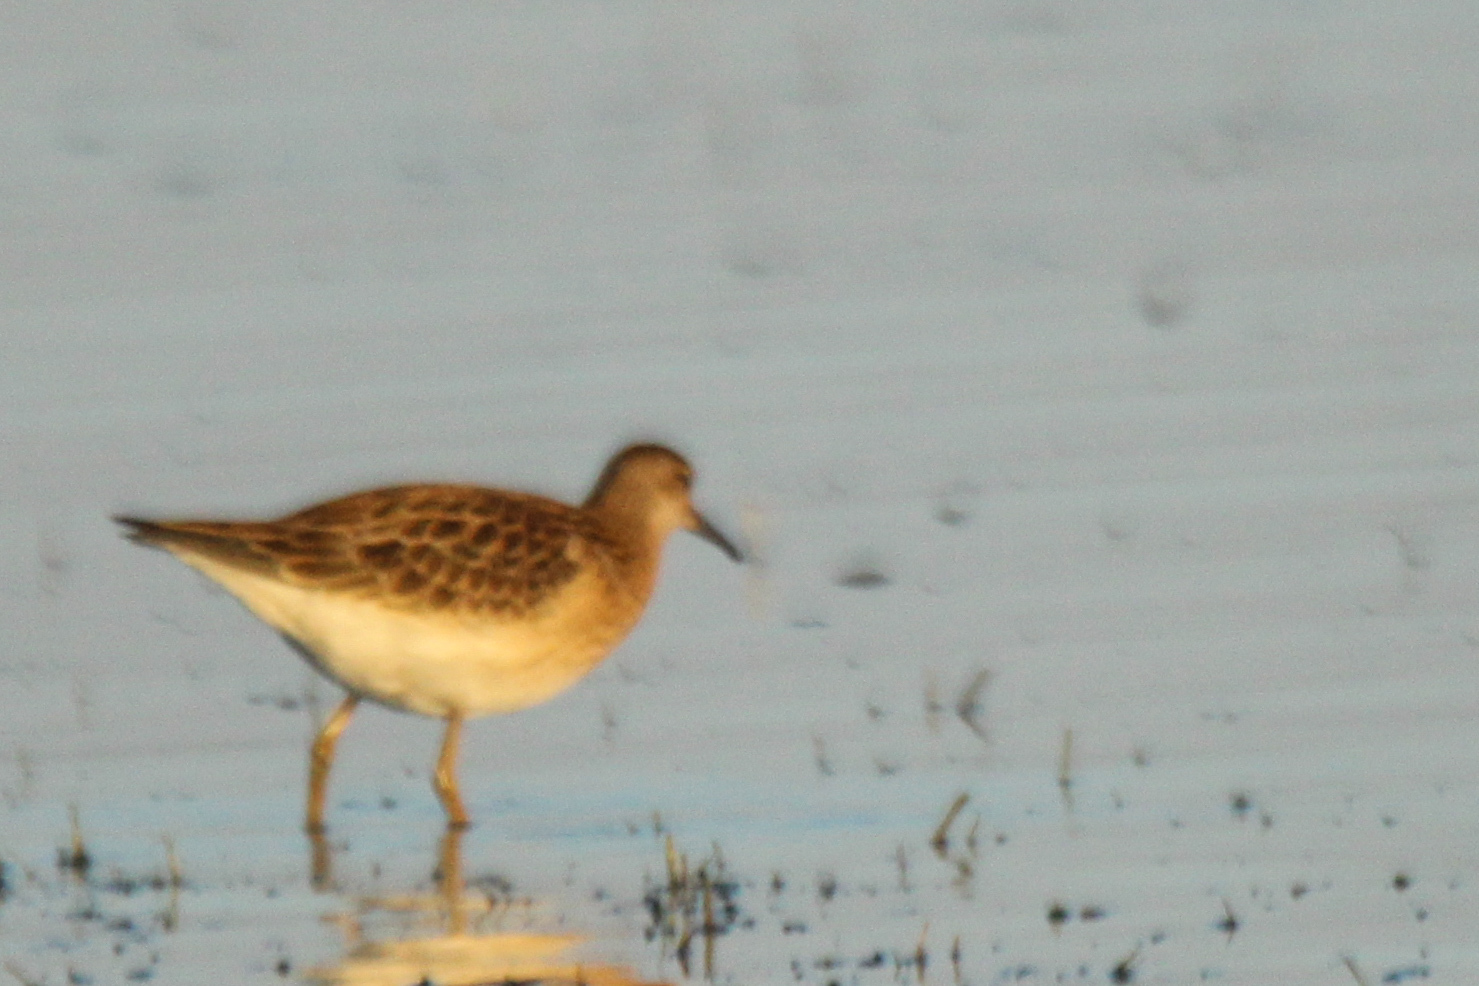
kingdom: Animalia
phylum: Chordata
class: Aves
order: Charadriiformes
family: Scolopacidae
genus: Calidris
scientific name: Calidris pugnax
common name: Ruff
